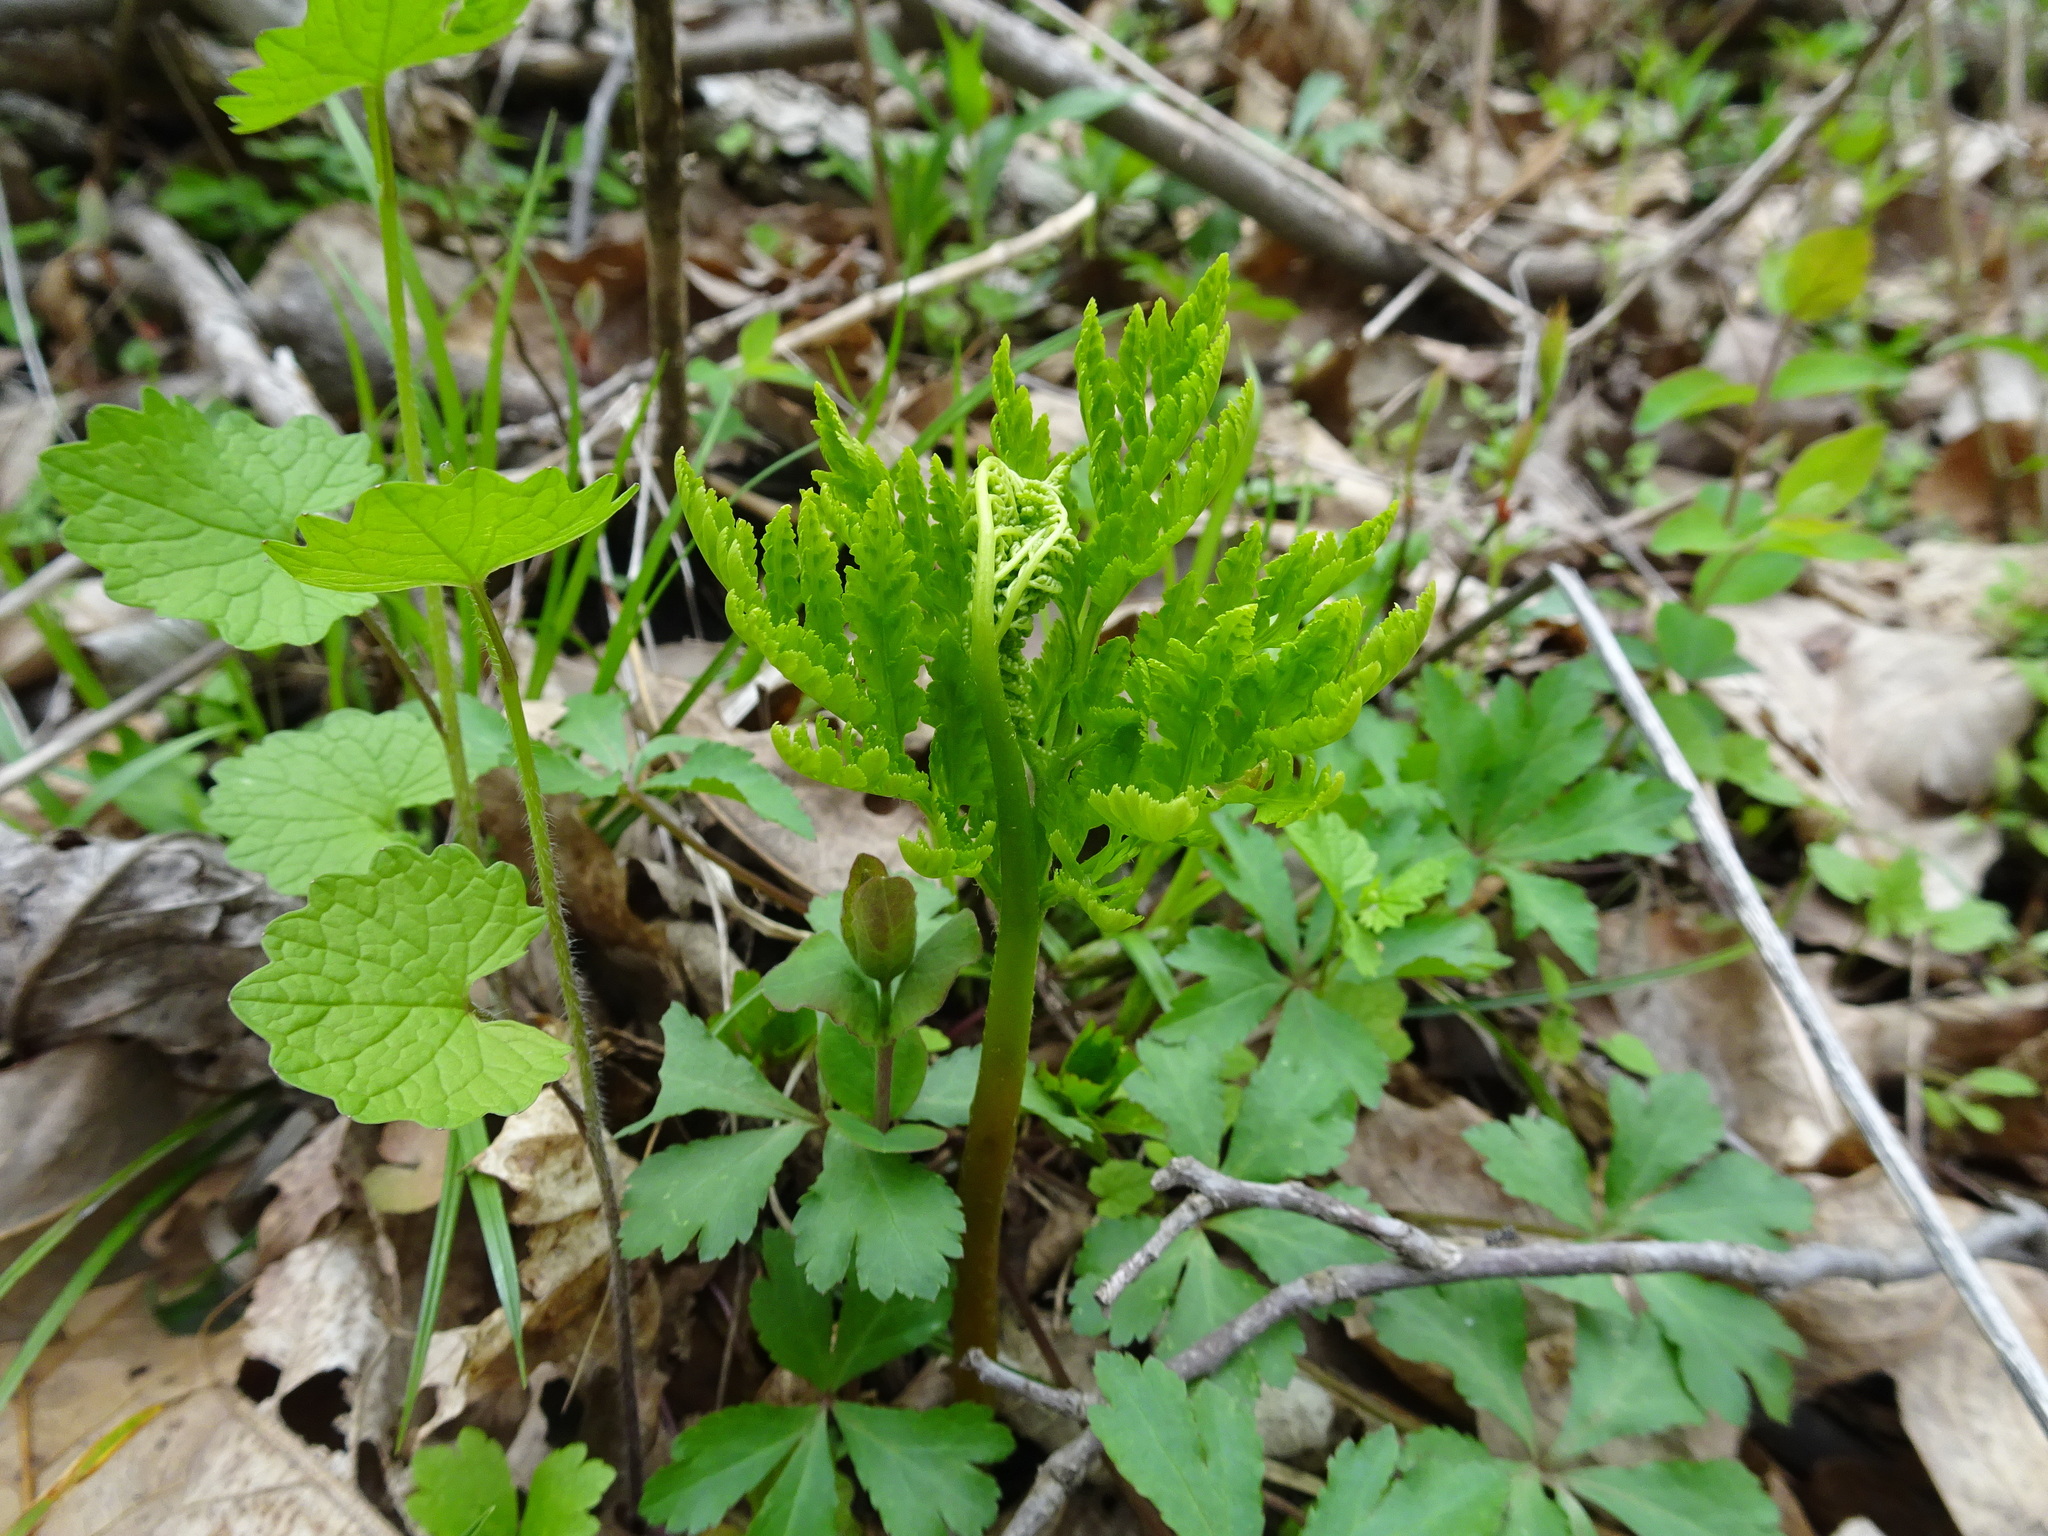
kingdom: Plantae
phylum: Tracheophyta
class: Polypodiopsida
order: Ophioglossales
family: Ophioglossaceae
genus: Botrypus
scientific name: Botrypus virginianus
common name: Common grapefern
